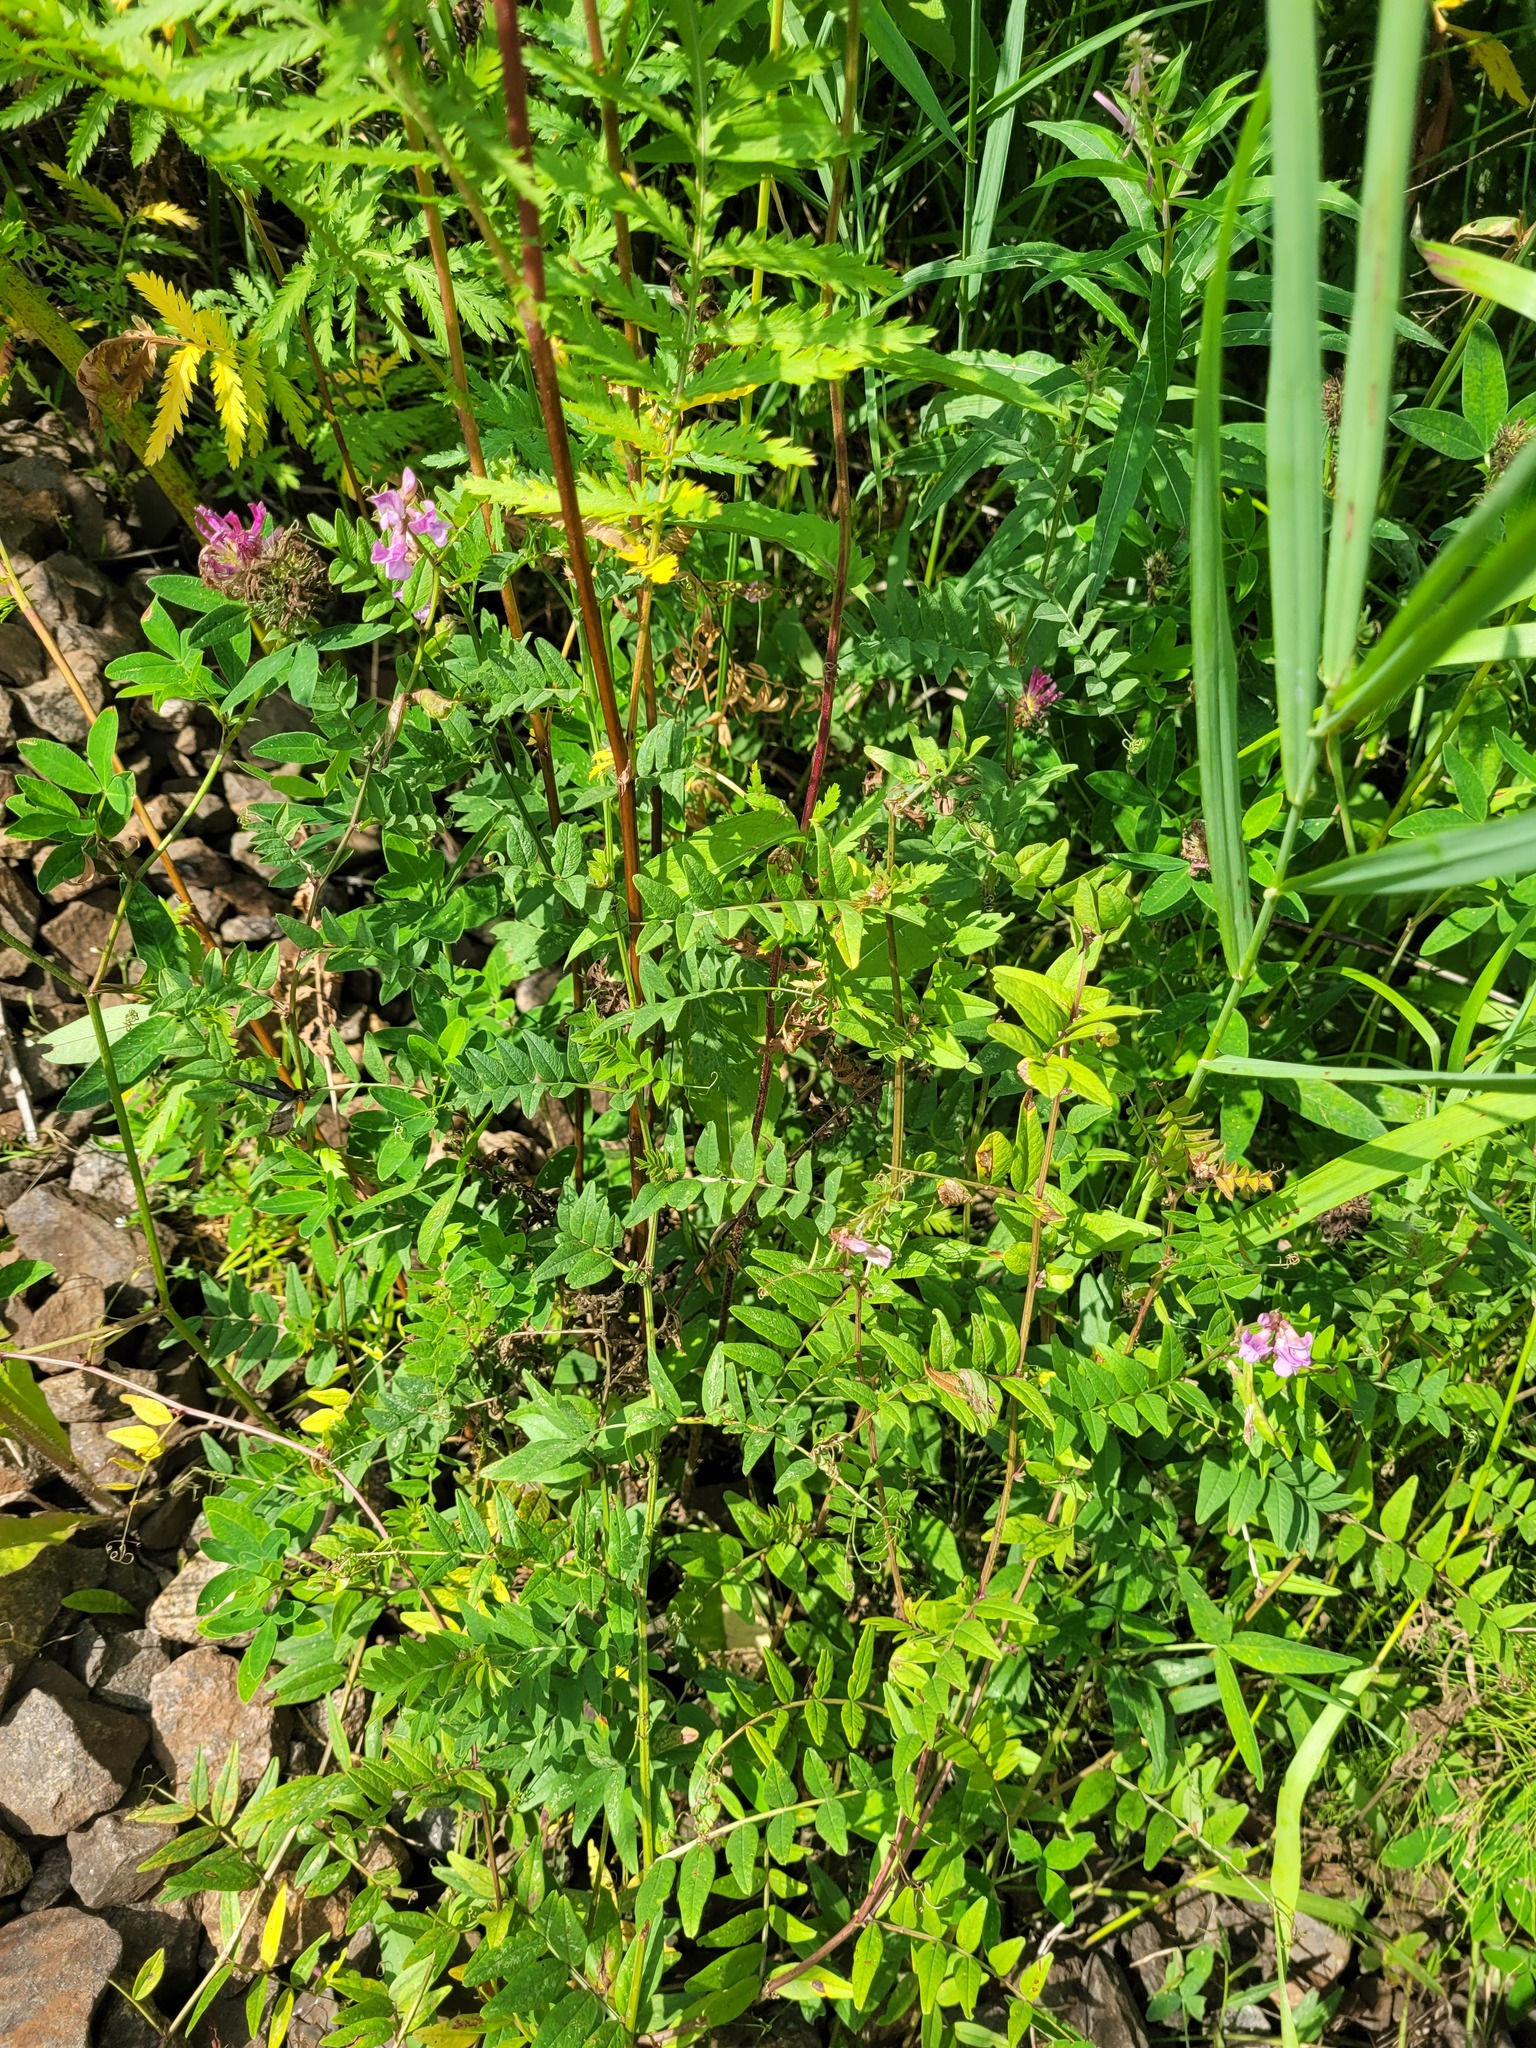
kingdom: Plantae
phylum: Tracheophyta
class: Magnoliopsida
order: Fabales
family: Fabaceae
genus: Vicia
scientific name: Vicia sepium
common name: Bush vetch
